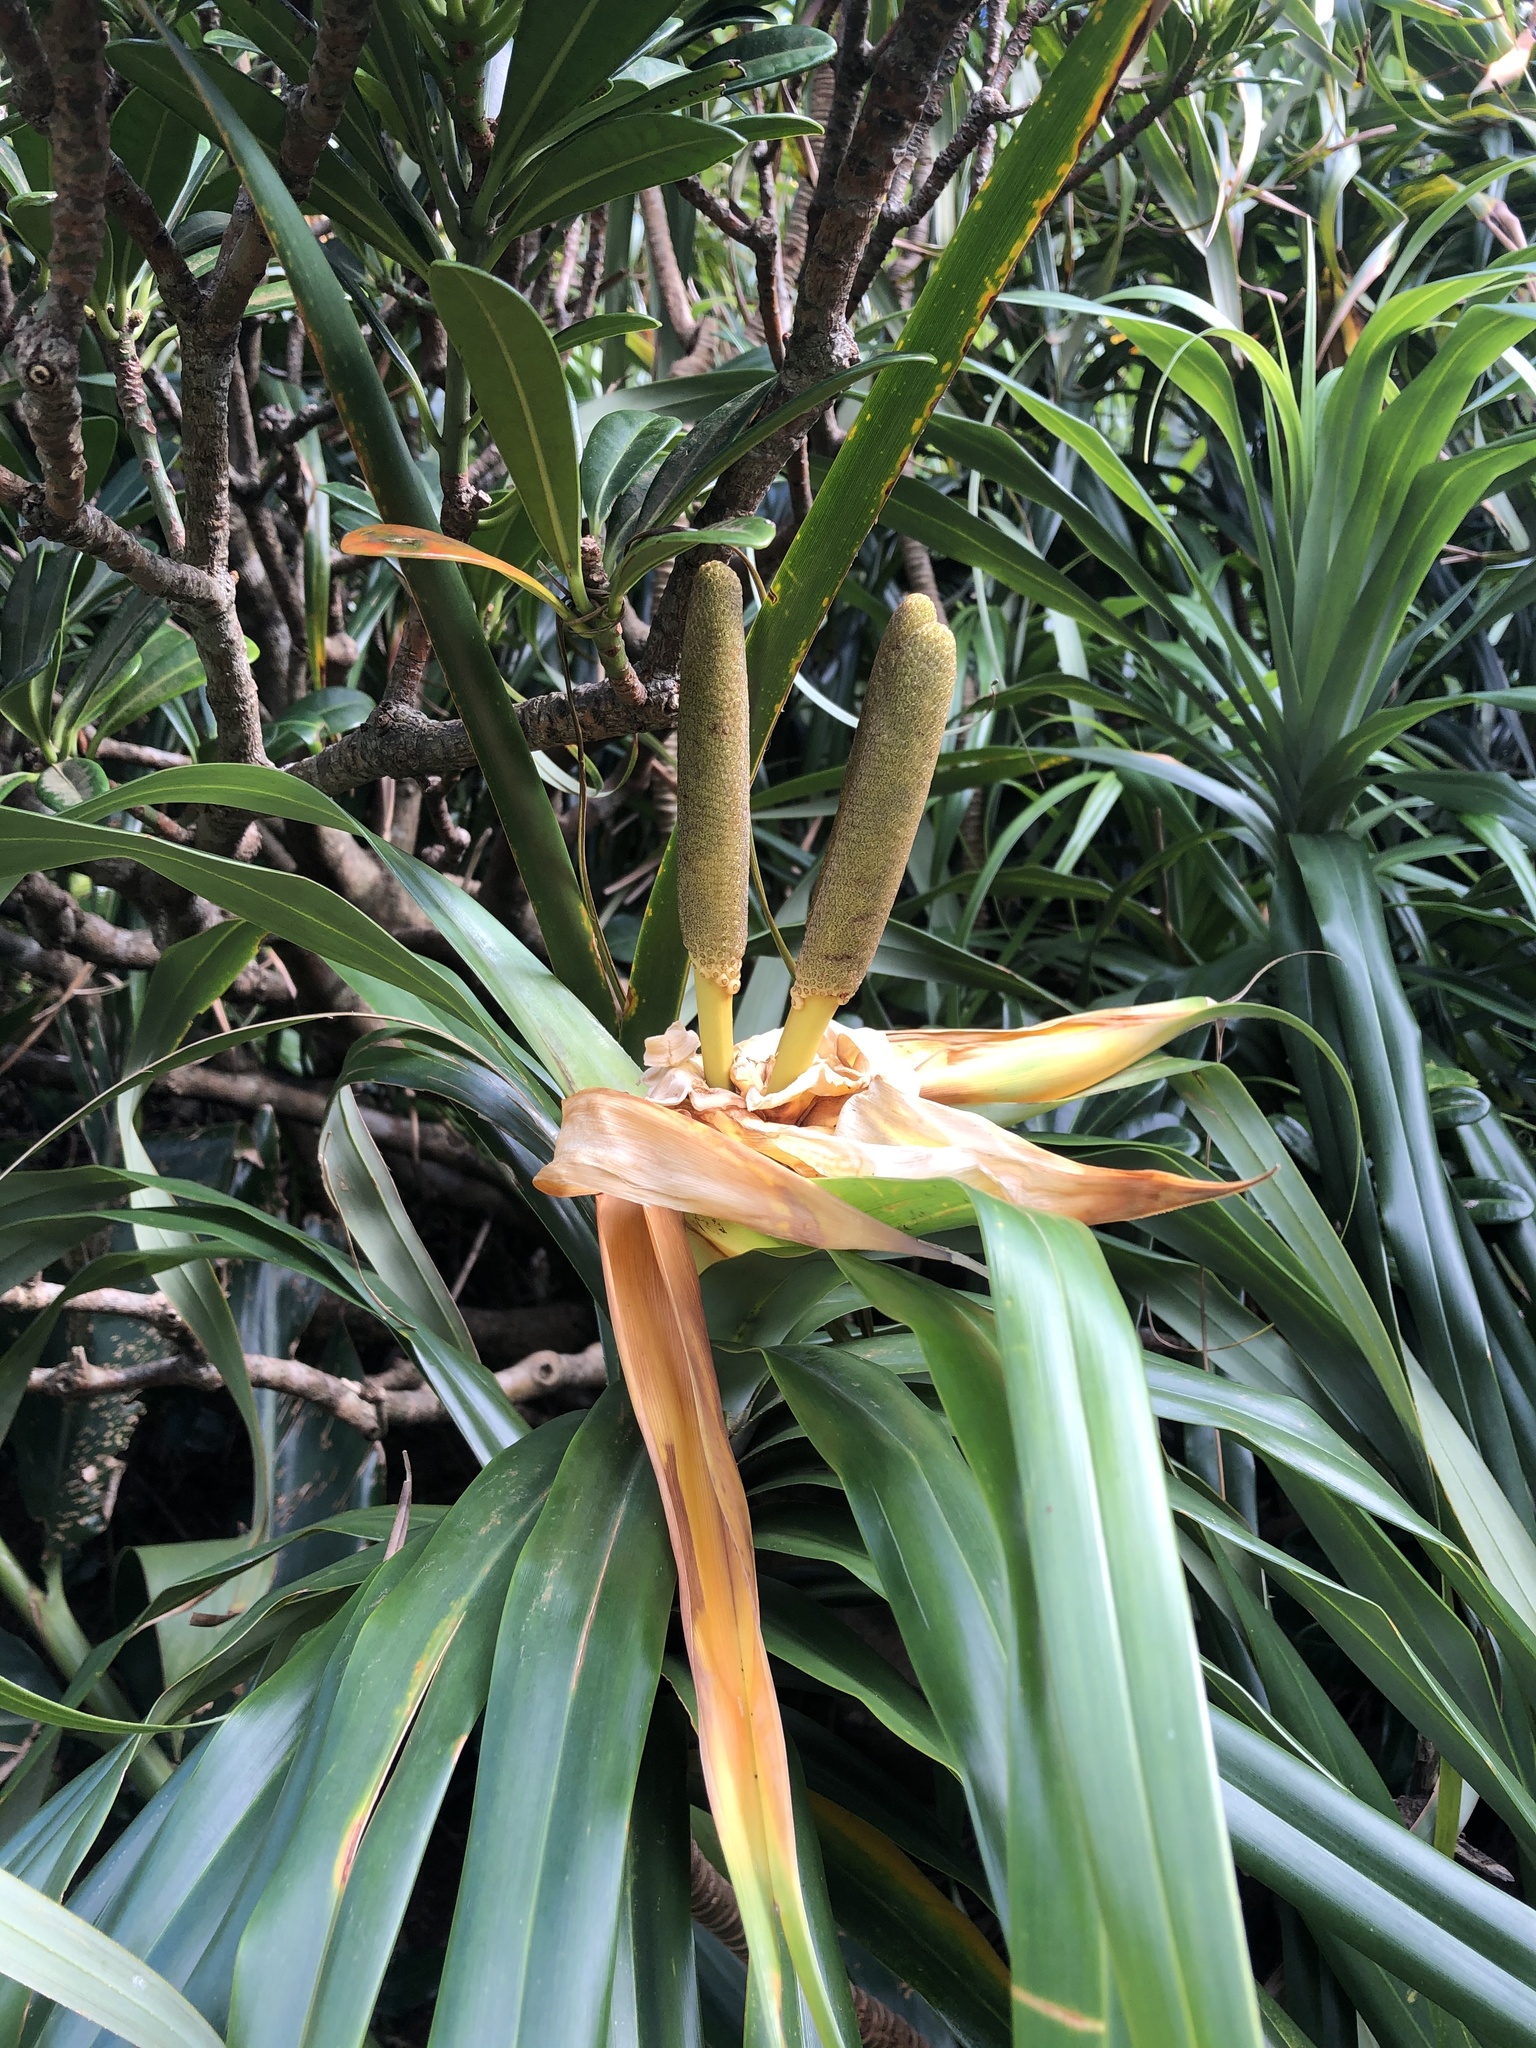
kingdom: Plantae
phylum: Tracheophyta
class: Liliopsida
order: Pandanales
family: Pandanaceae
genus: Freycinetia
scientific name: Freycinetia formosana
